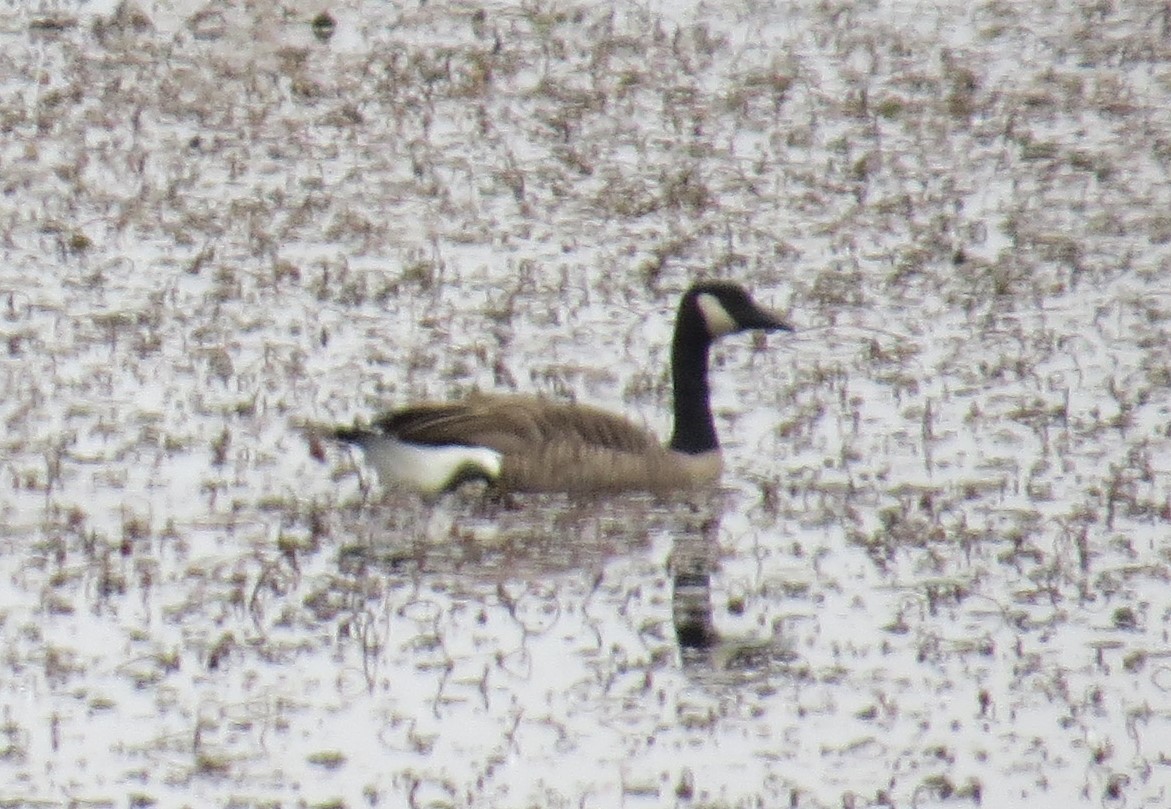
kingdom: Animalia
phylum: Chordata
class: Aves
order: Anseriformes
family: Anatidae
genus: Branta
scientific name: Branta canadensis
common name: Canada goose
